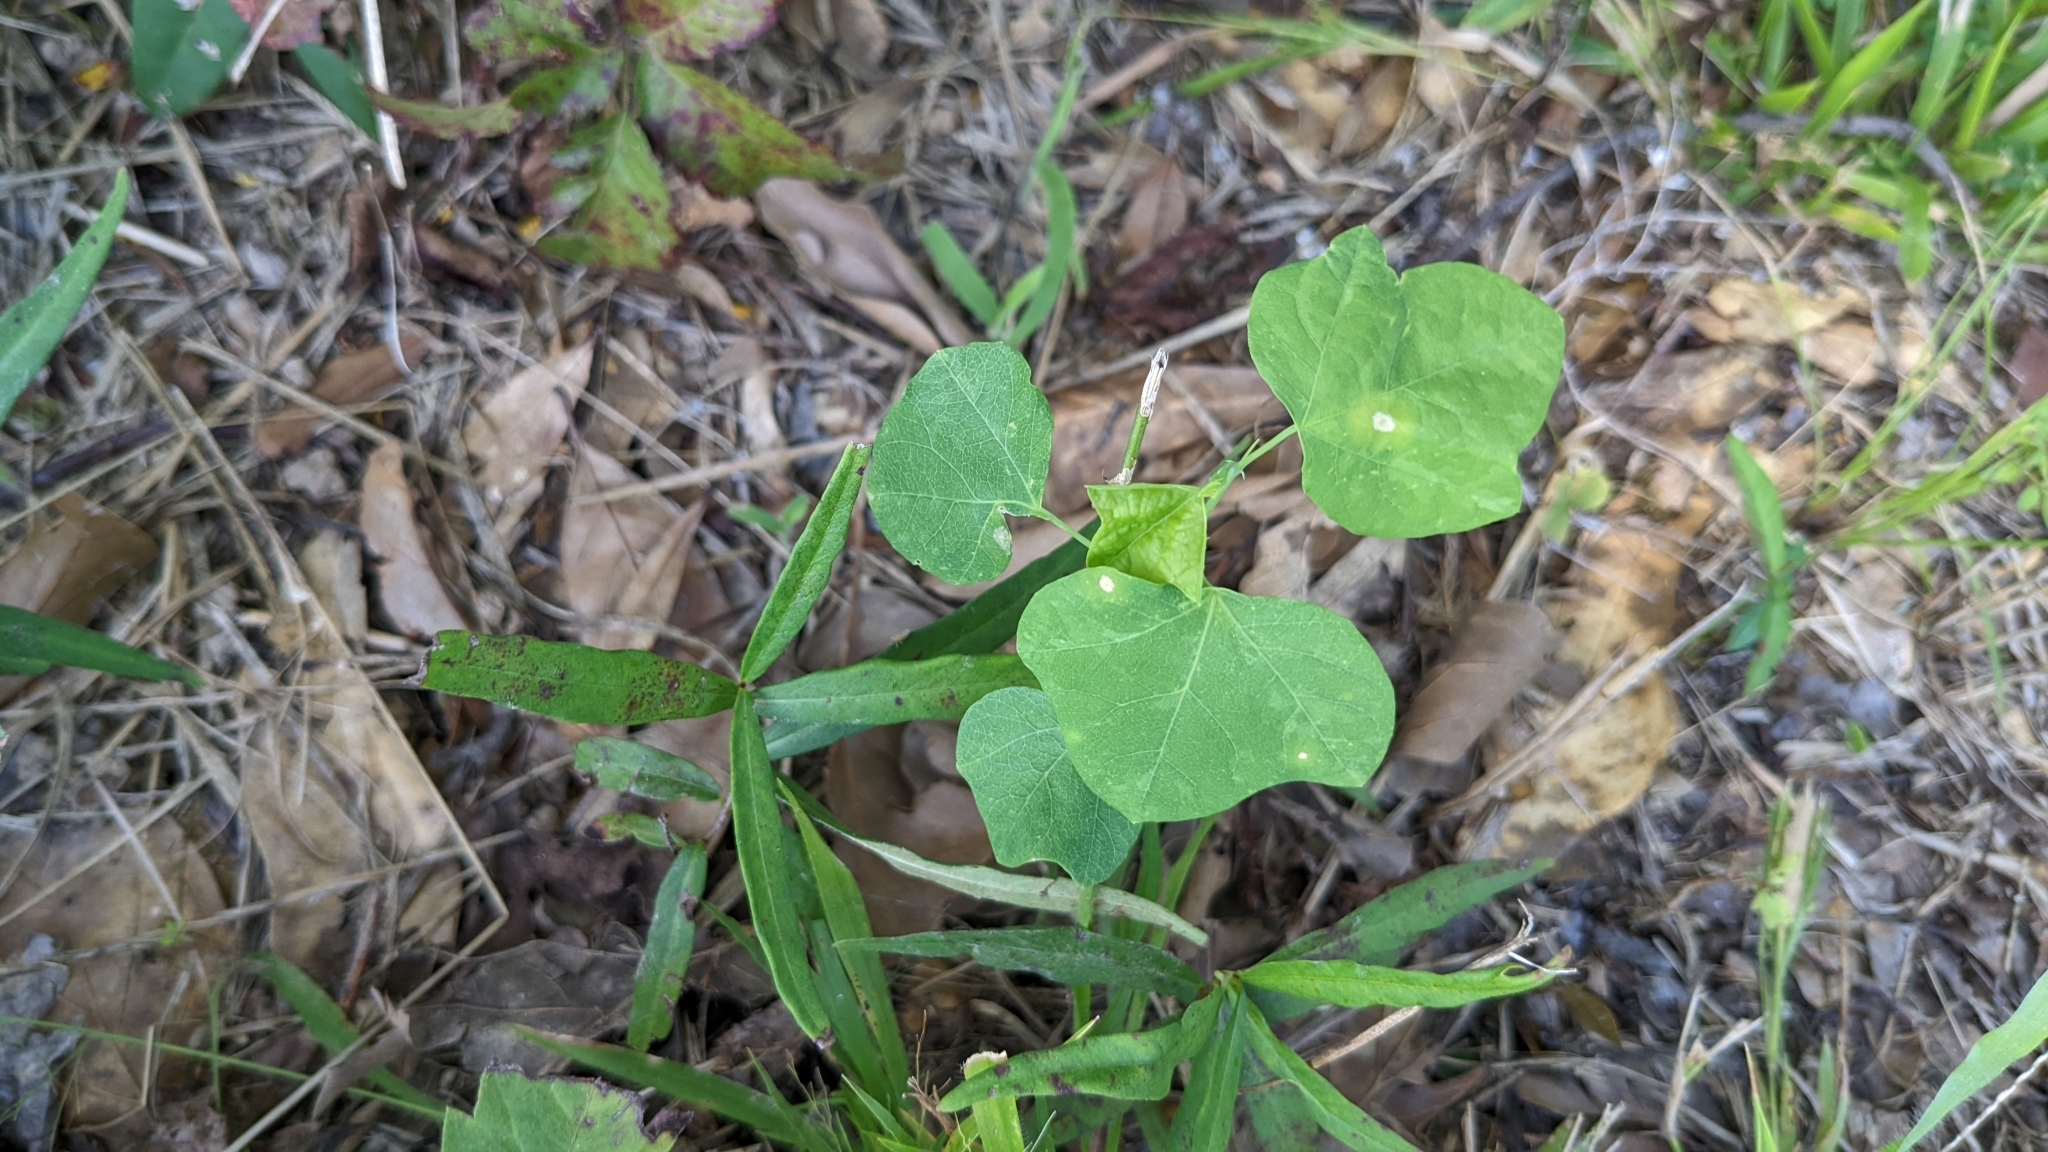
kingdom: Plantae
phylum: Tracheophyta
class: Magnoliopsida
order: Malpighiales
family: Passifloraceae
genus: Passiflora
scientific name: Passiflora lutea
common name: Yellow passionflower
